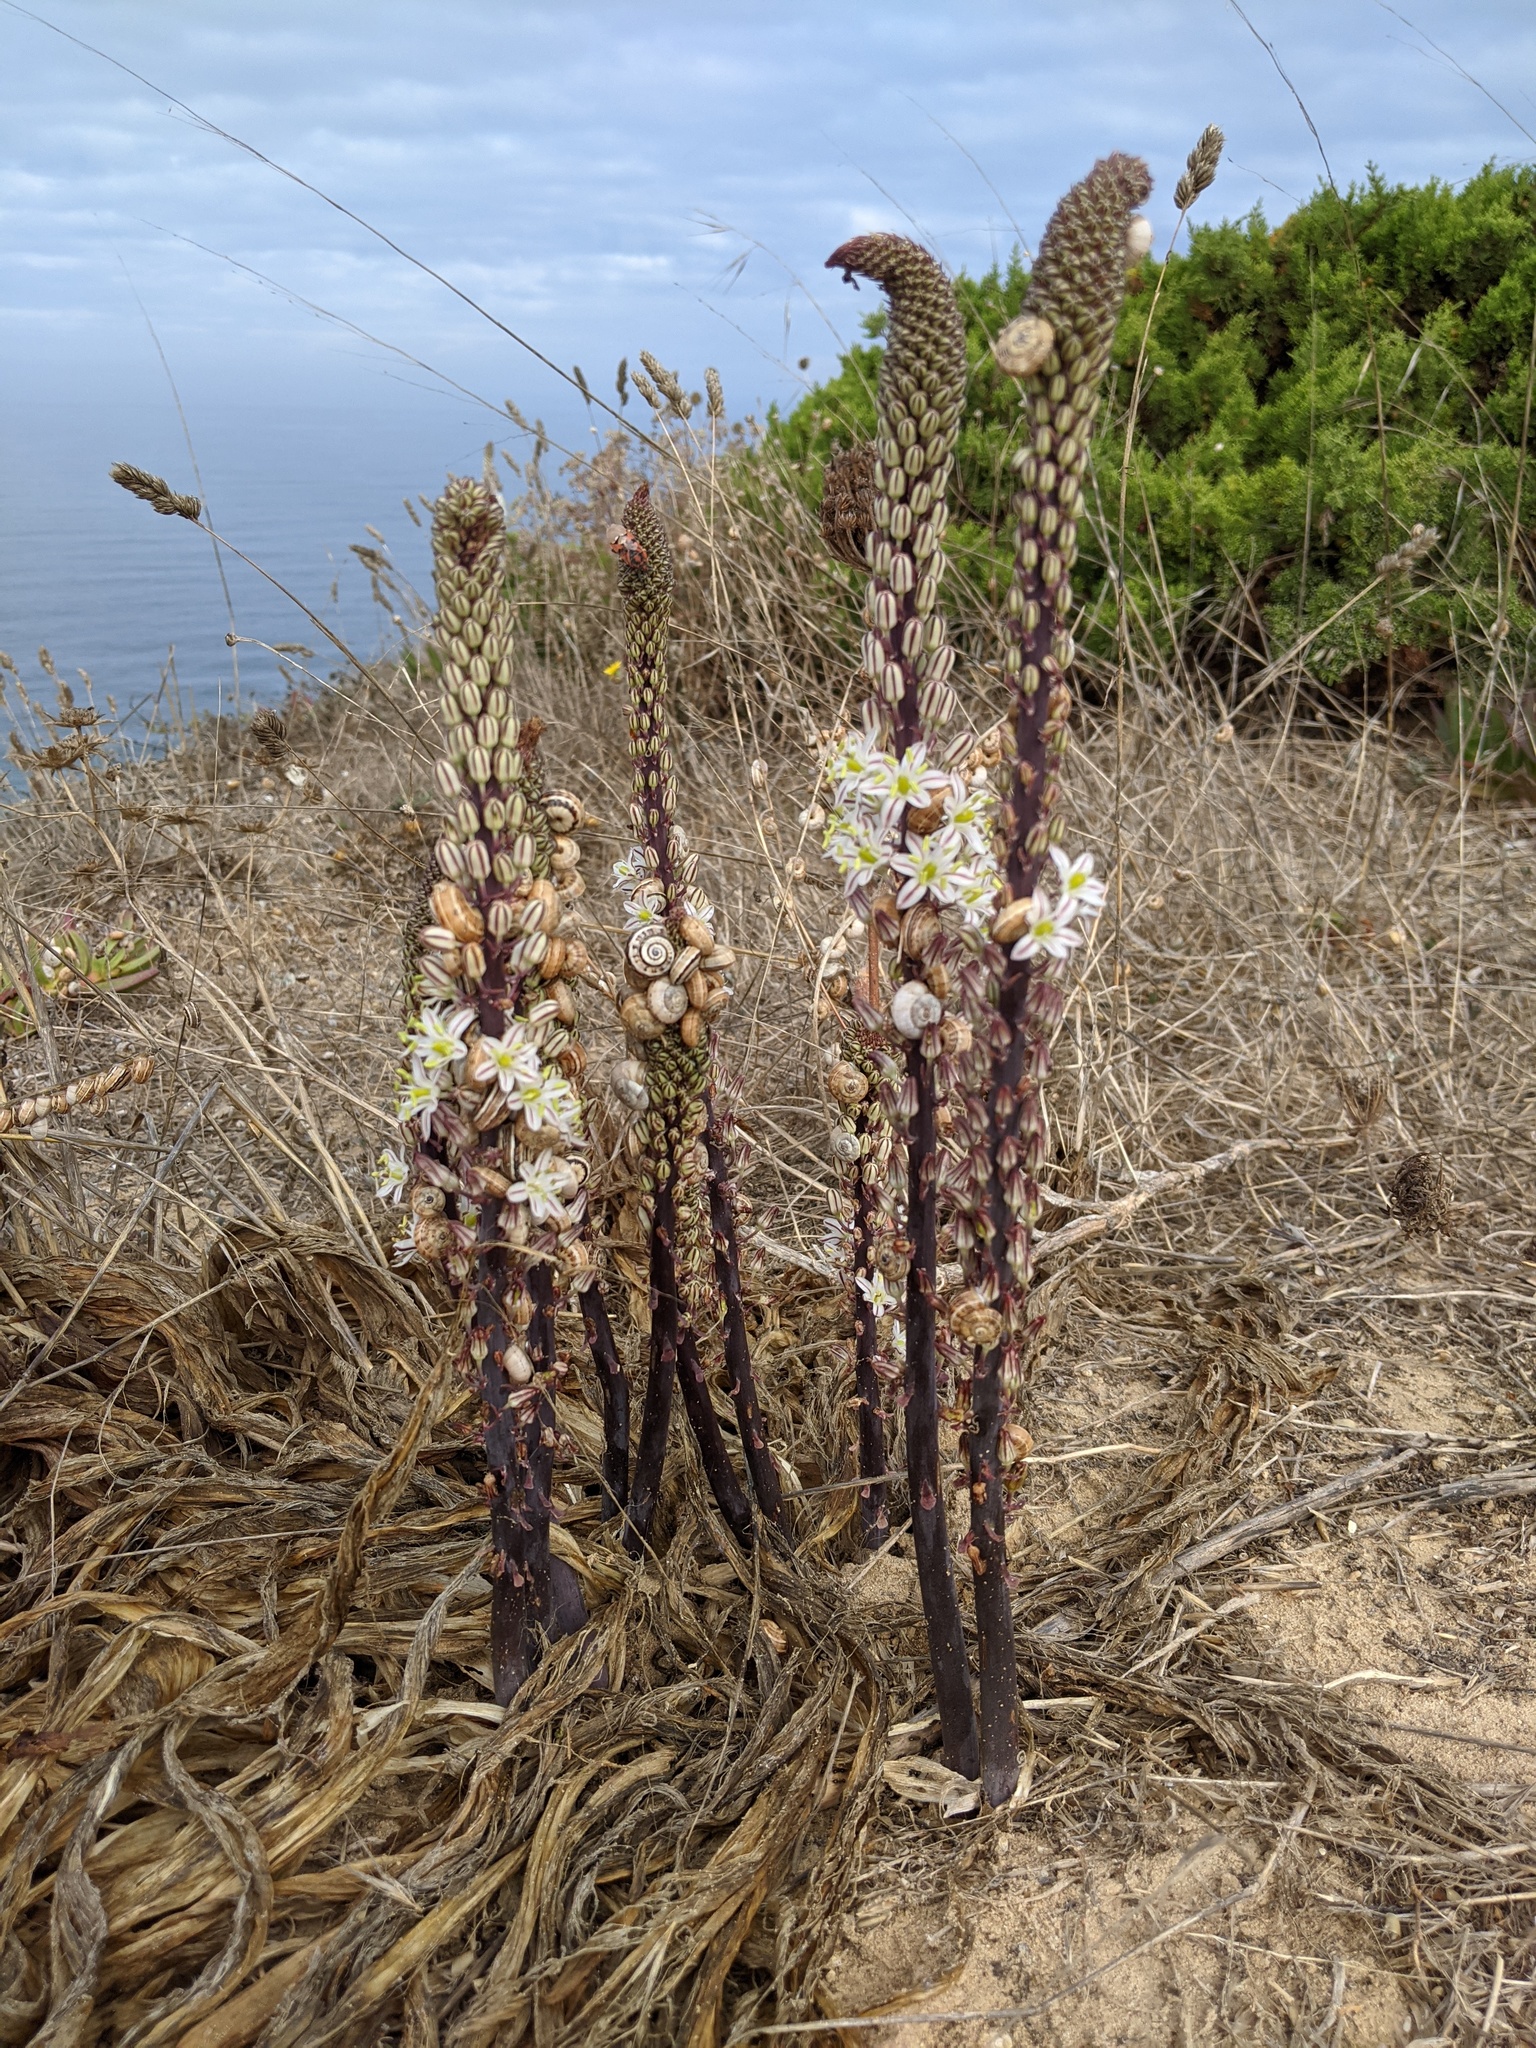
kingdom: Plantae
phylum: Tracheophyta
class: Liliopsida
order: Asparagales
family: Asparagaceae
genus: Drimia
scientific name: Drimia maritima
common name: Maritime squill
